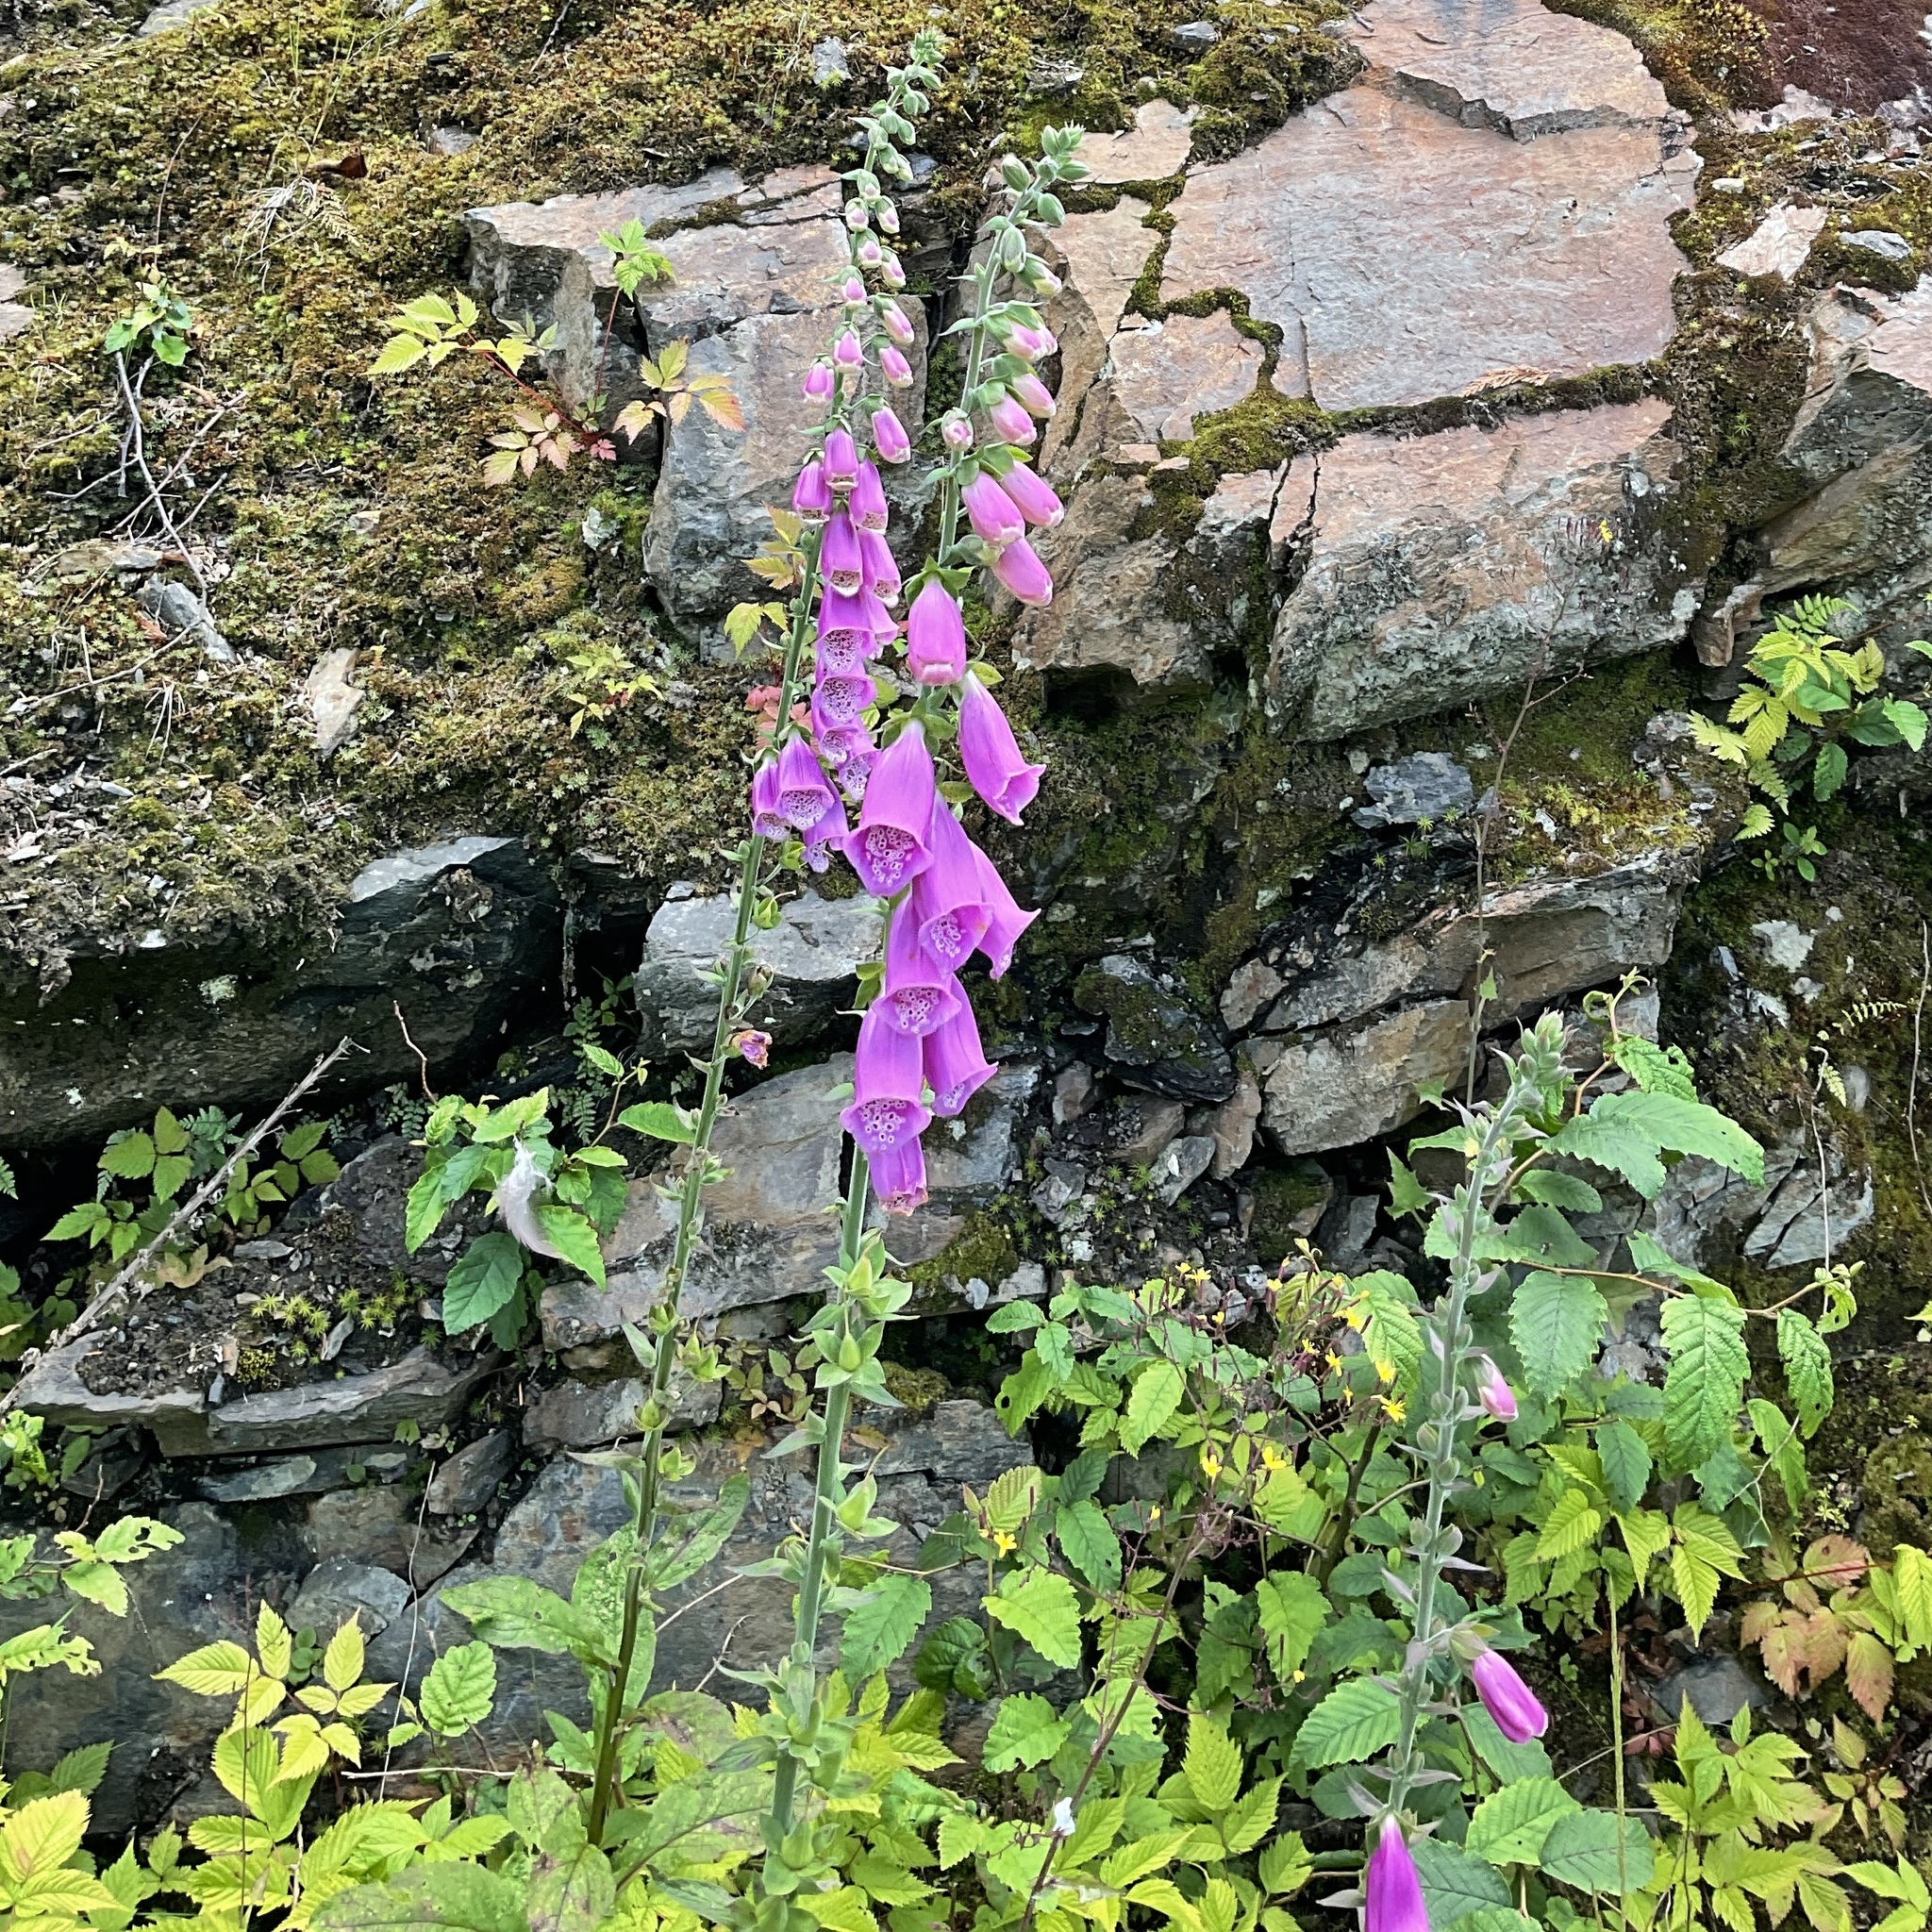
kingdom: Plantae
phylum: Tracheophyta
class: Magnoliopsida
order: Lamiales
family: Plantaginaceae
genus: Digitalis
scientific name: Digitalis purpurea
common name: Foxglove
